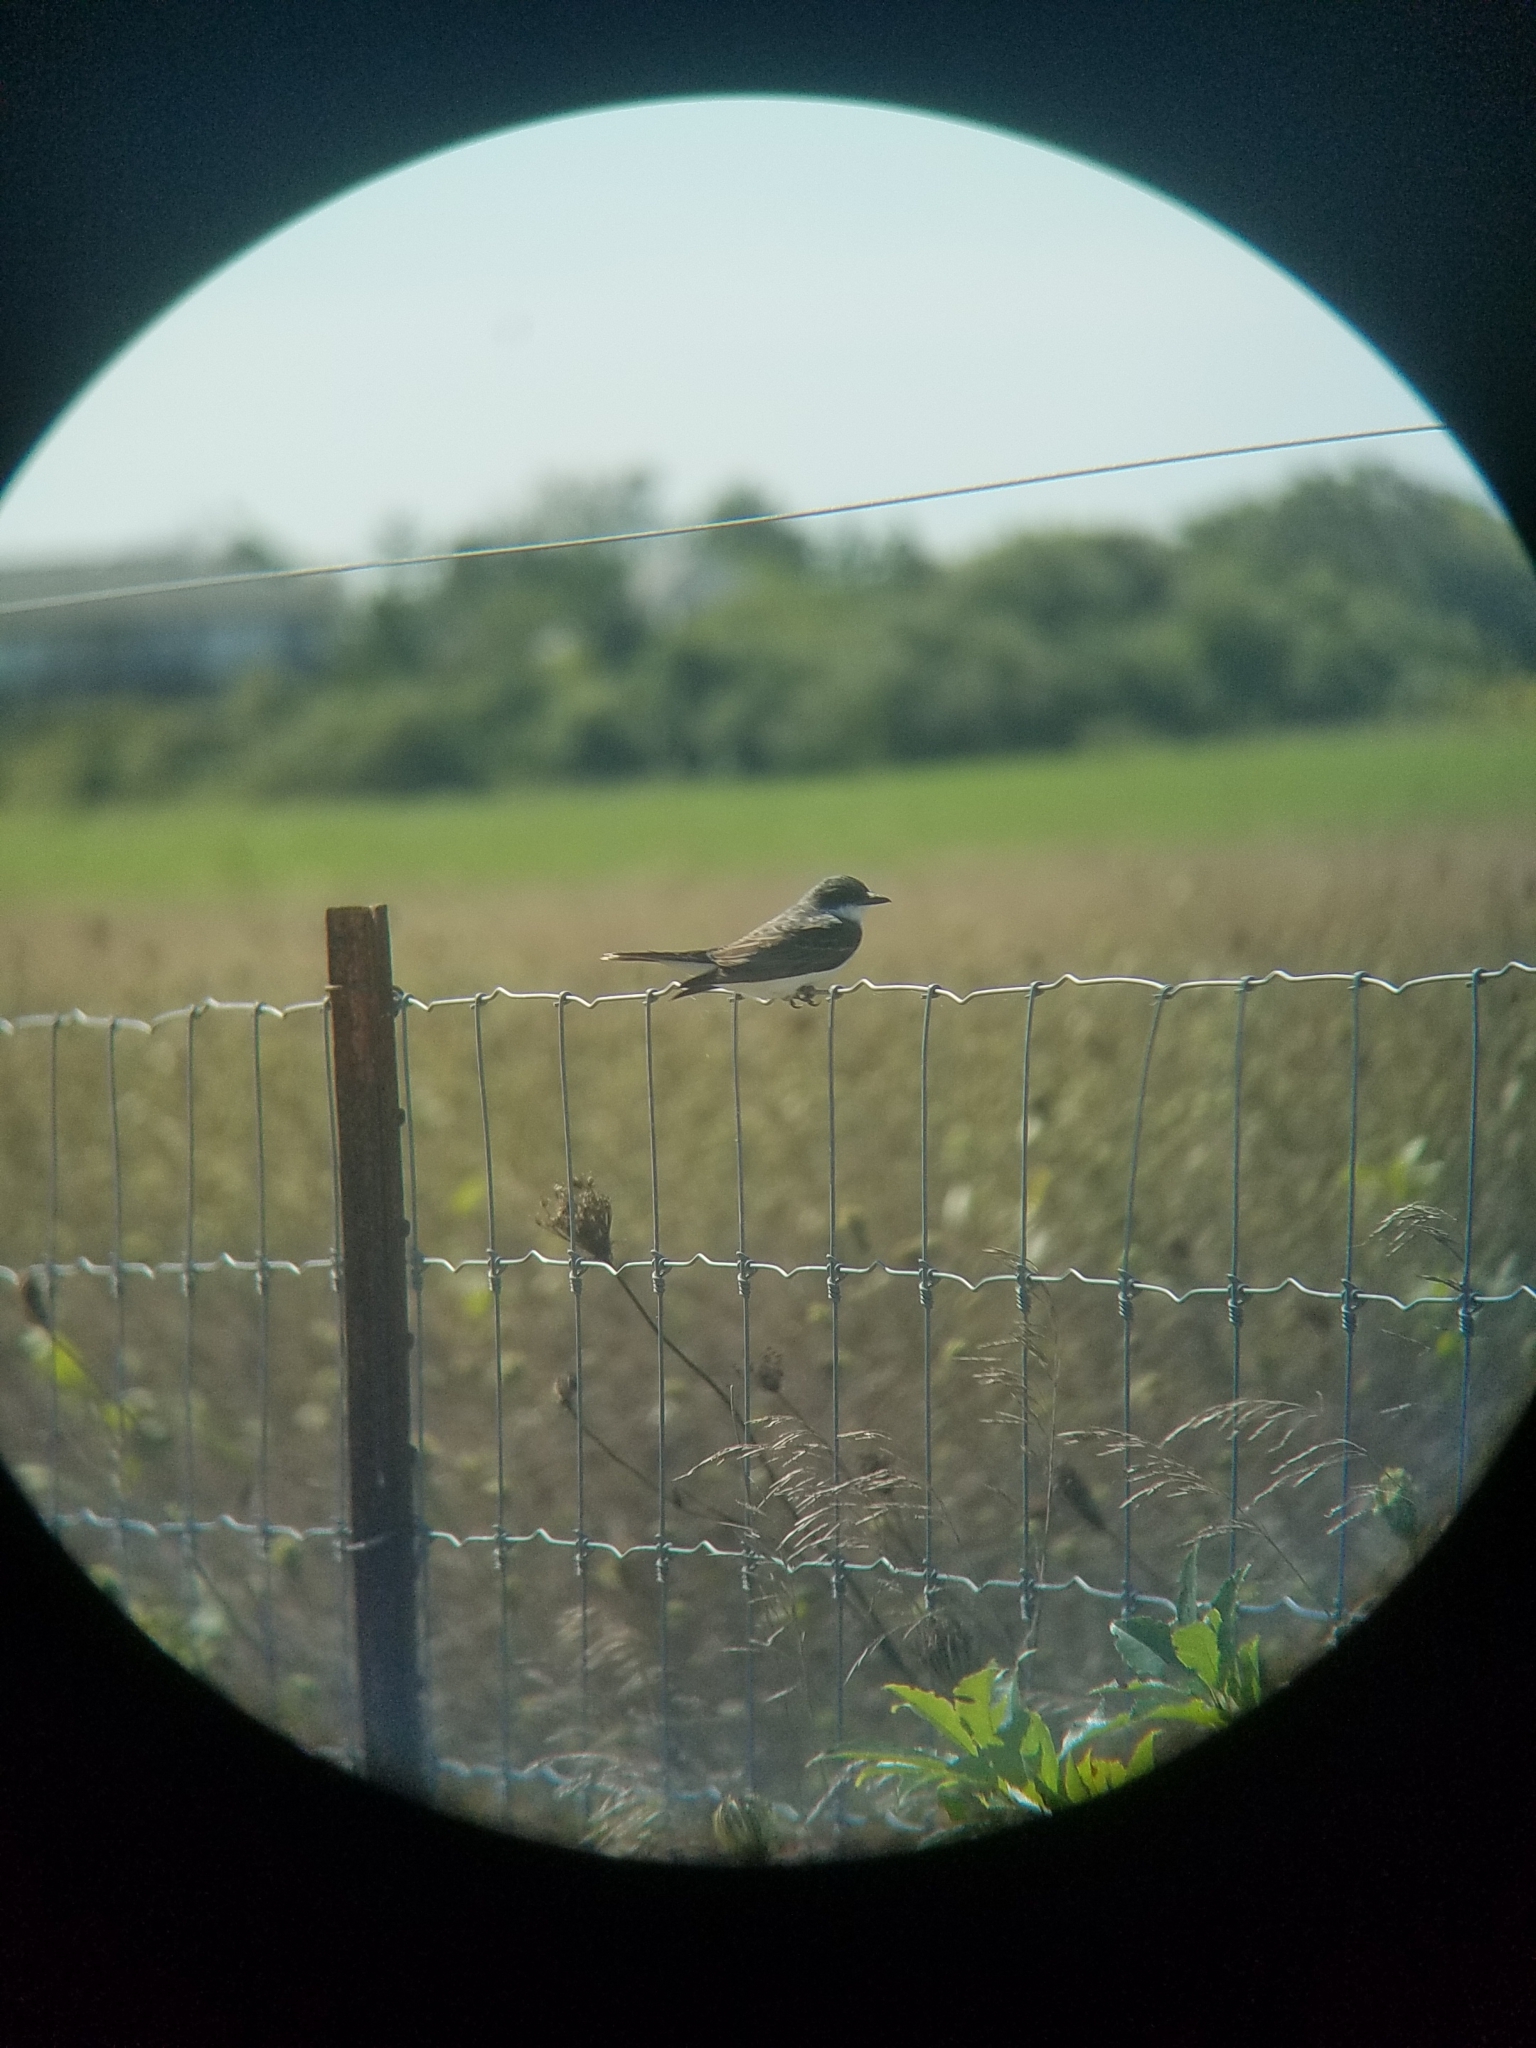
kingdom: Animalia
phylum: Chordata
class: Aves
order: Passeriformes
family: Tyrannidae
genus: Tyrannus
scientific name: Tyrannus tyrannus
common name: Eastern kingbird
